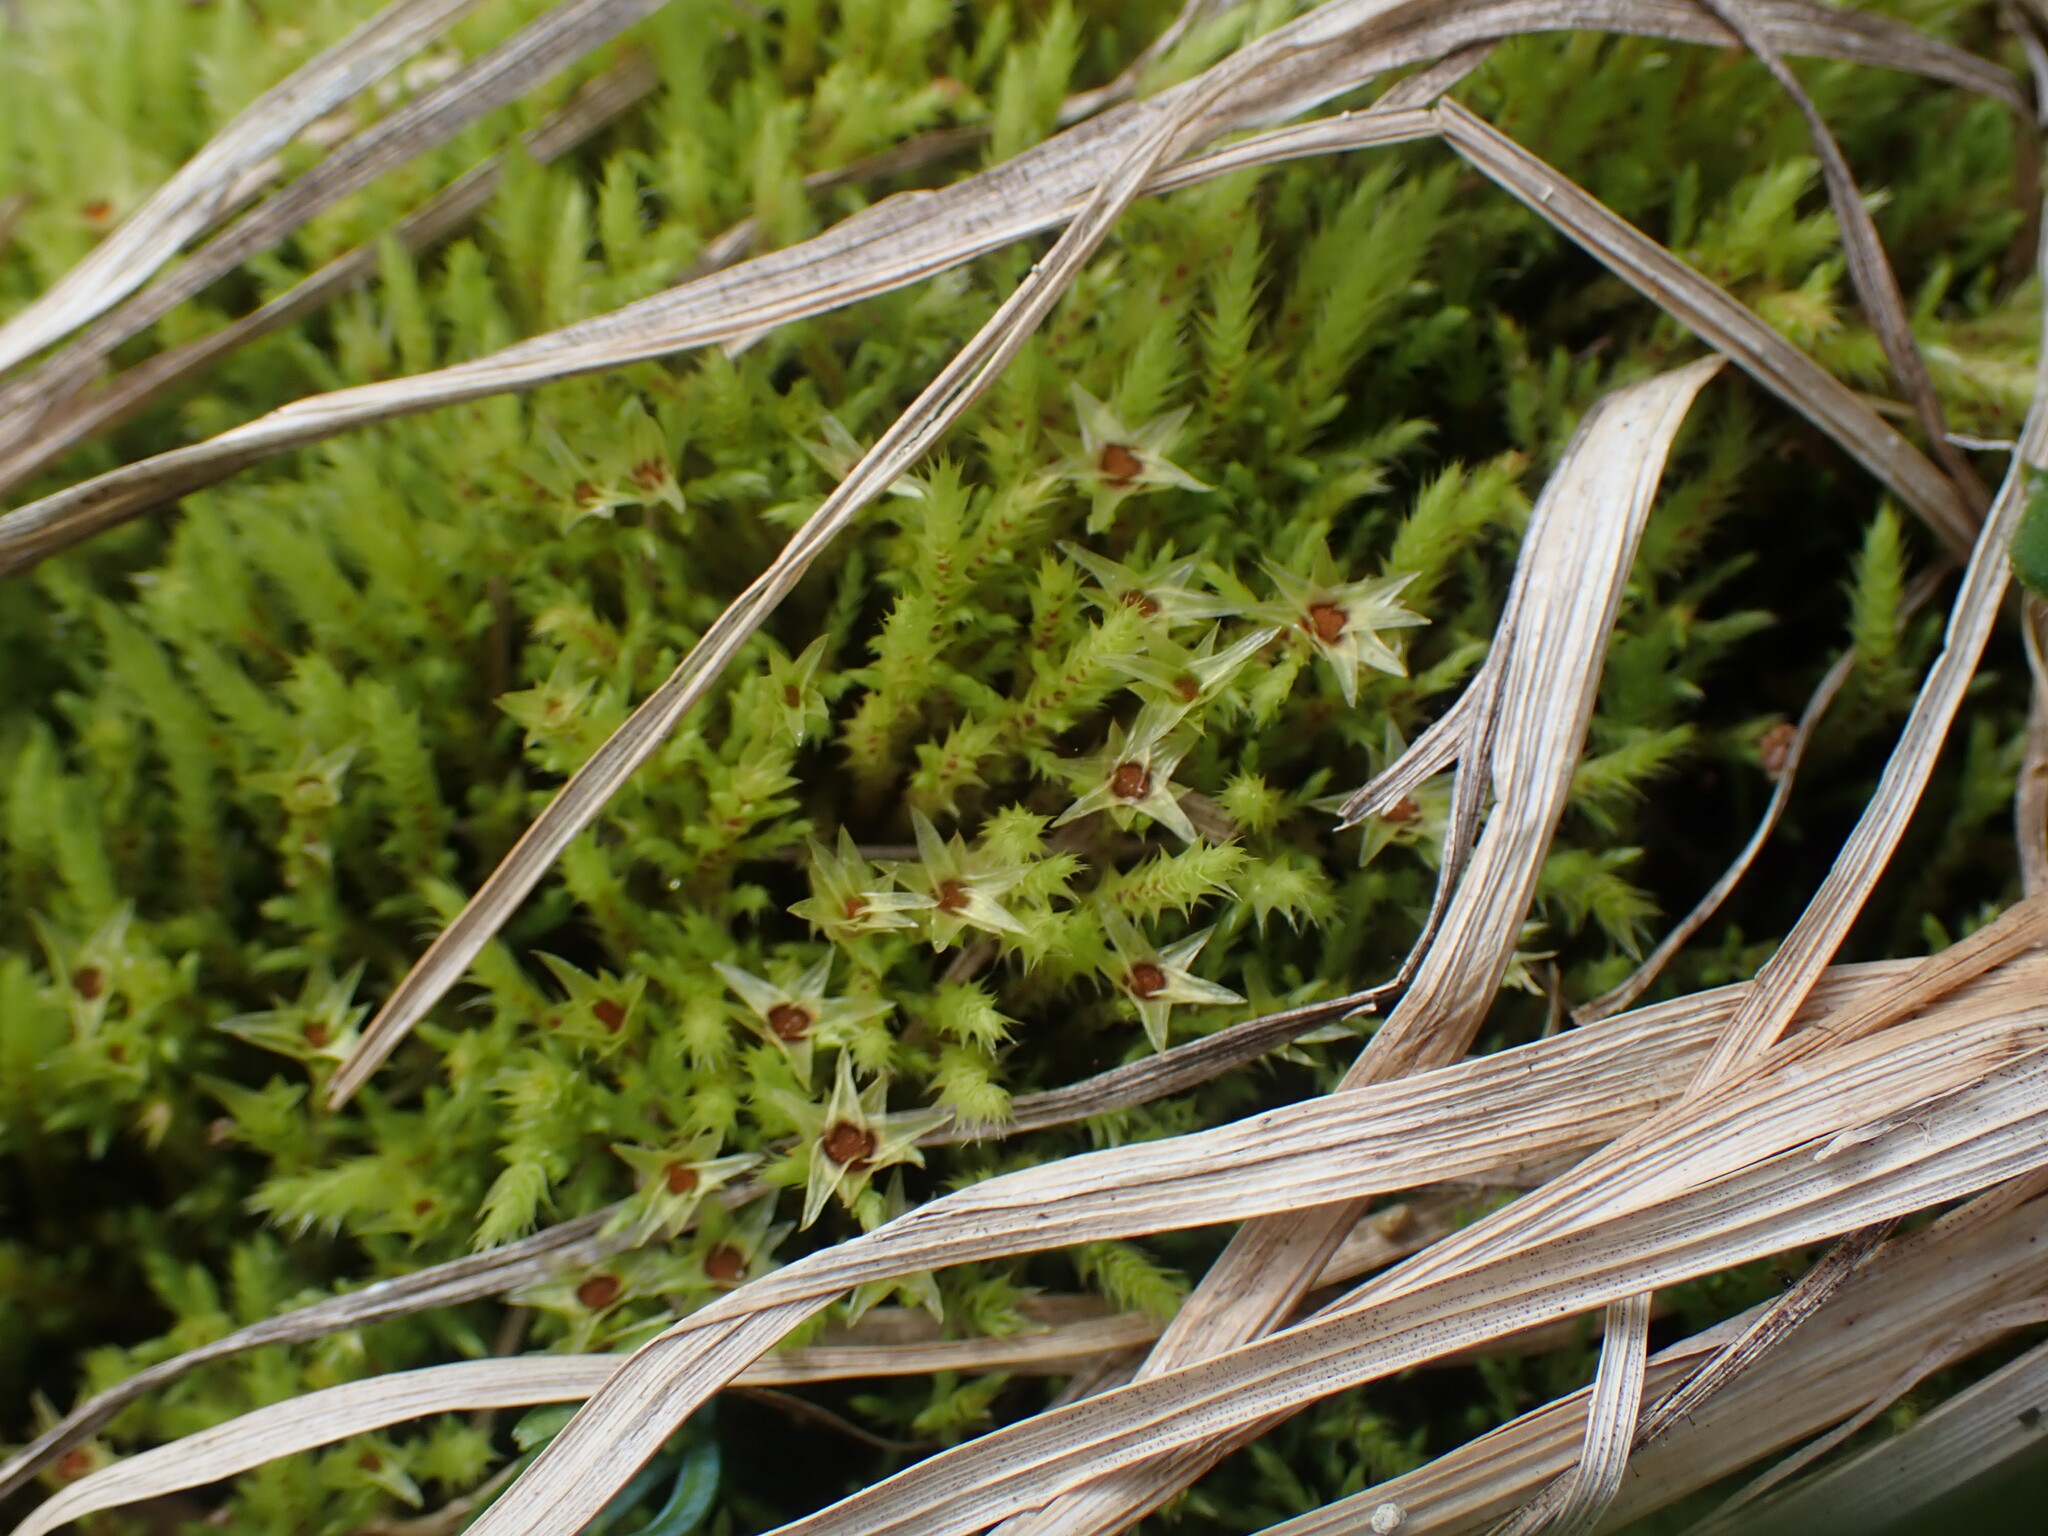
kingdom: Plantae
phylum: Bryophyta
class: Bryopsida
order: Bartramiales
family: Bartramiaceae
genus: Philonotis
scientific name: Philonotis fontana
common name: Fountain apple-moss
